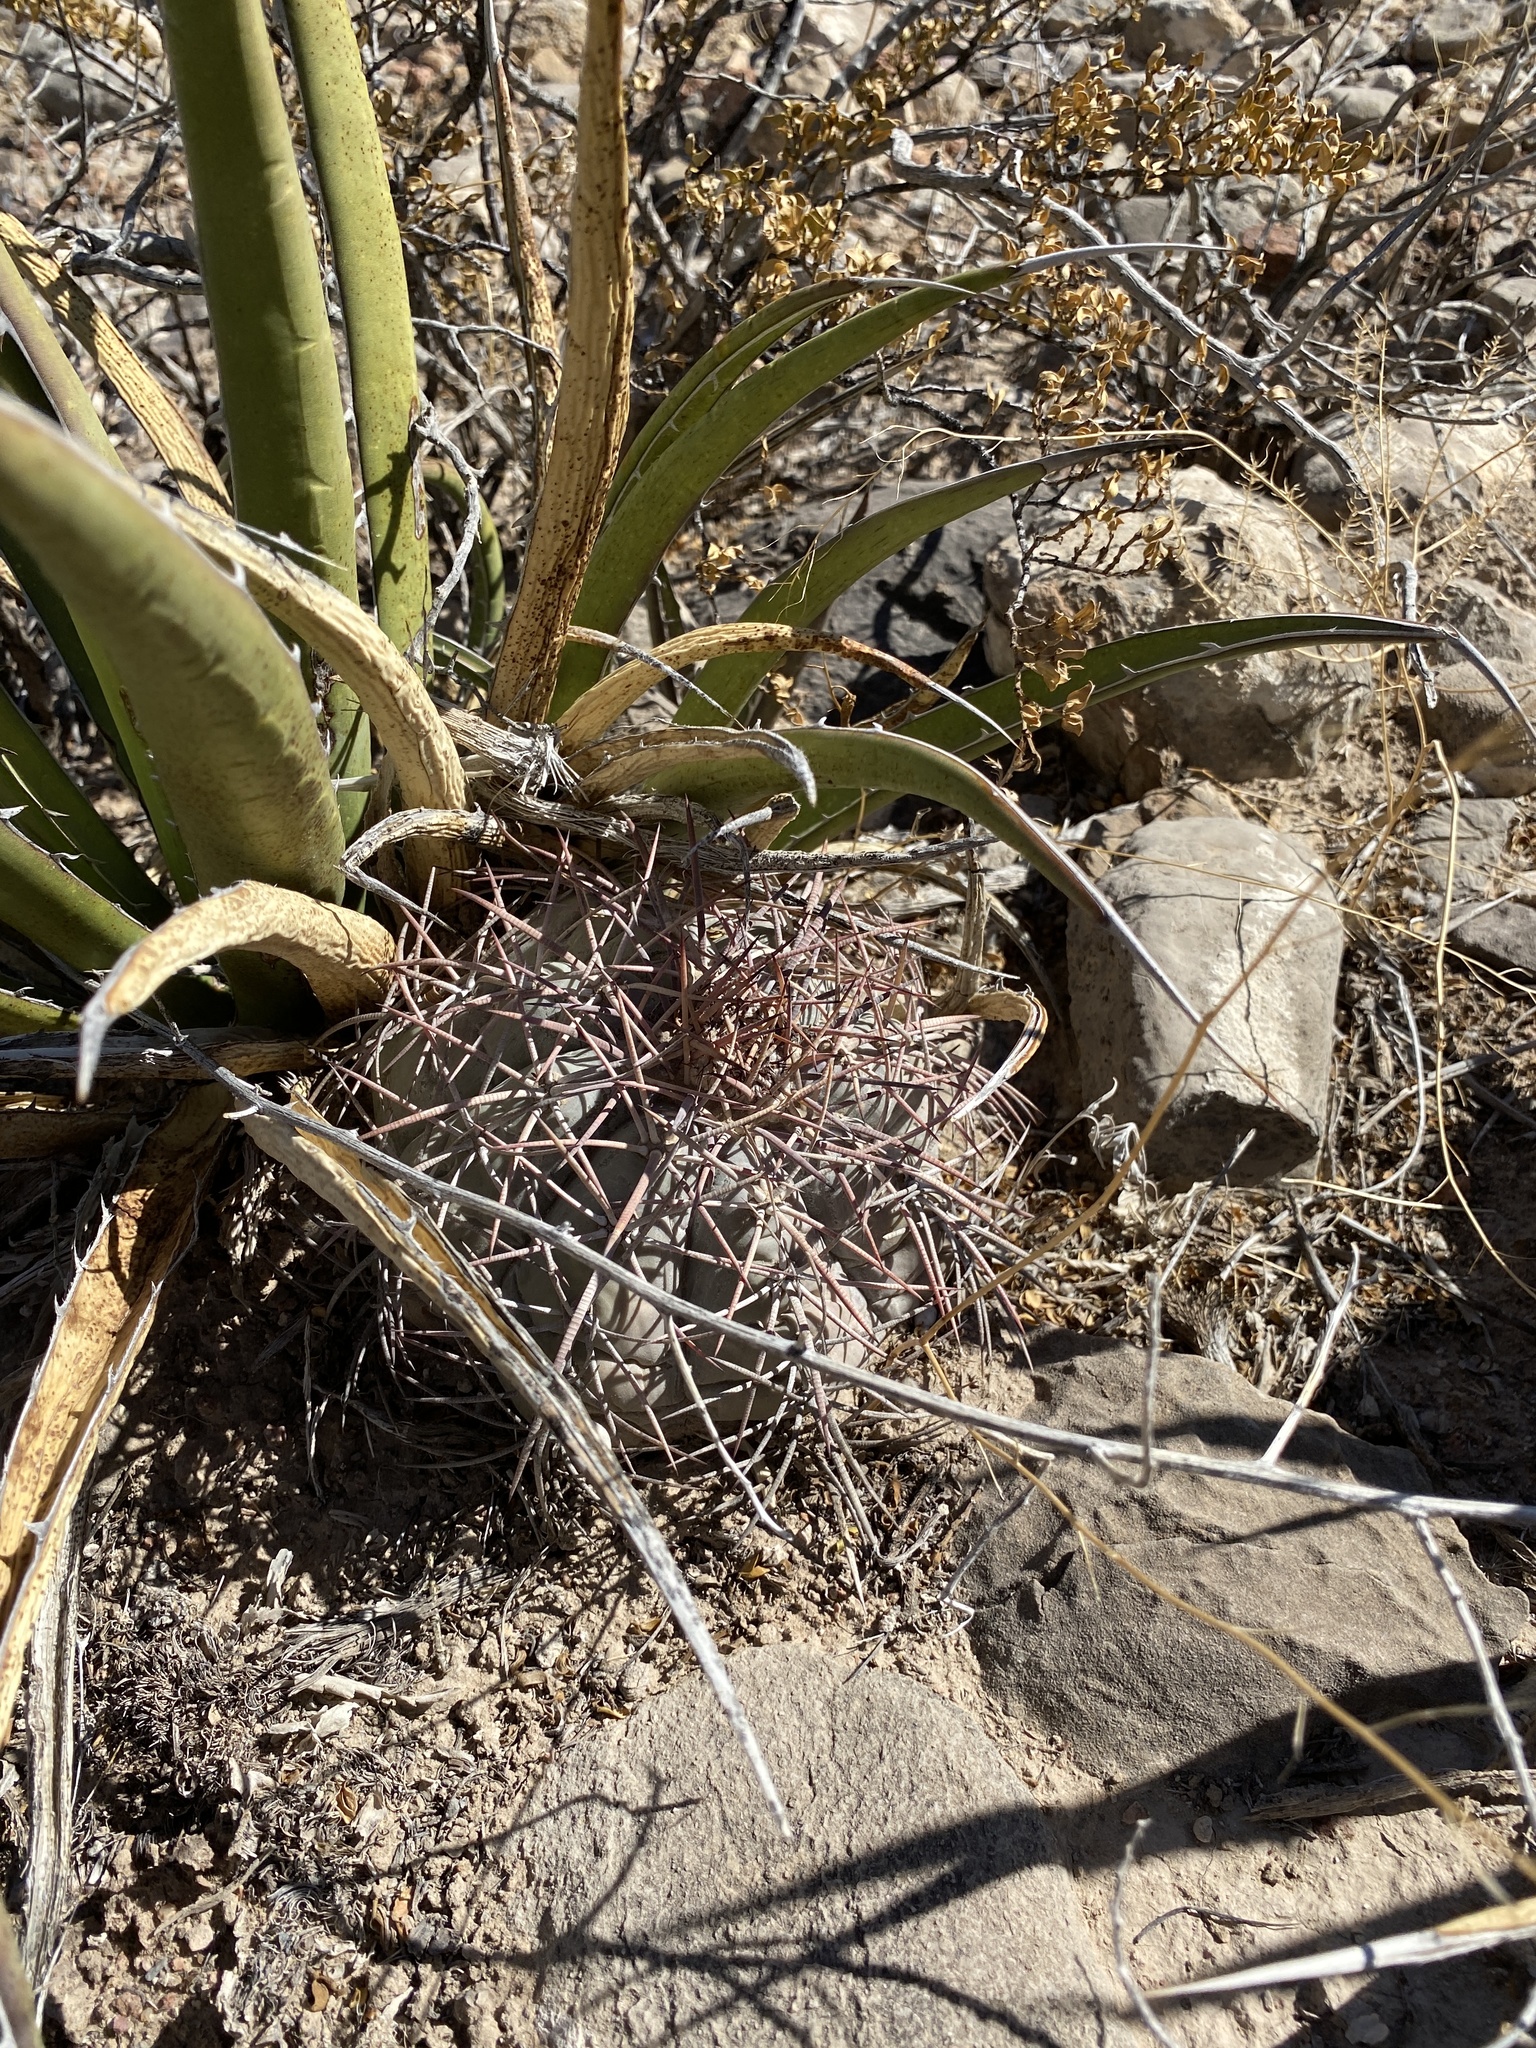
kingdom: Plantae
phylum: Tracheophyta
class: Magnoliopsida
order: Caryophyllales
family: Cactaceae
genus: Echinocactus
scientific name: Echinocactus horizonthalonius
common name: Devilshead
